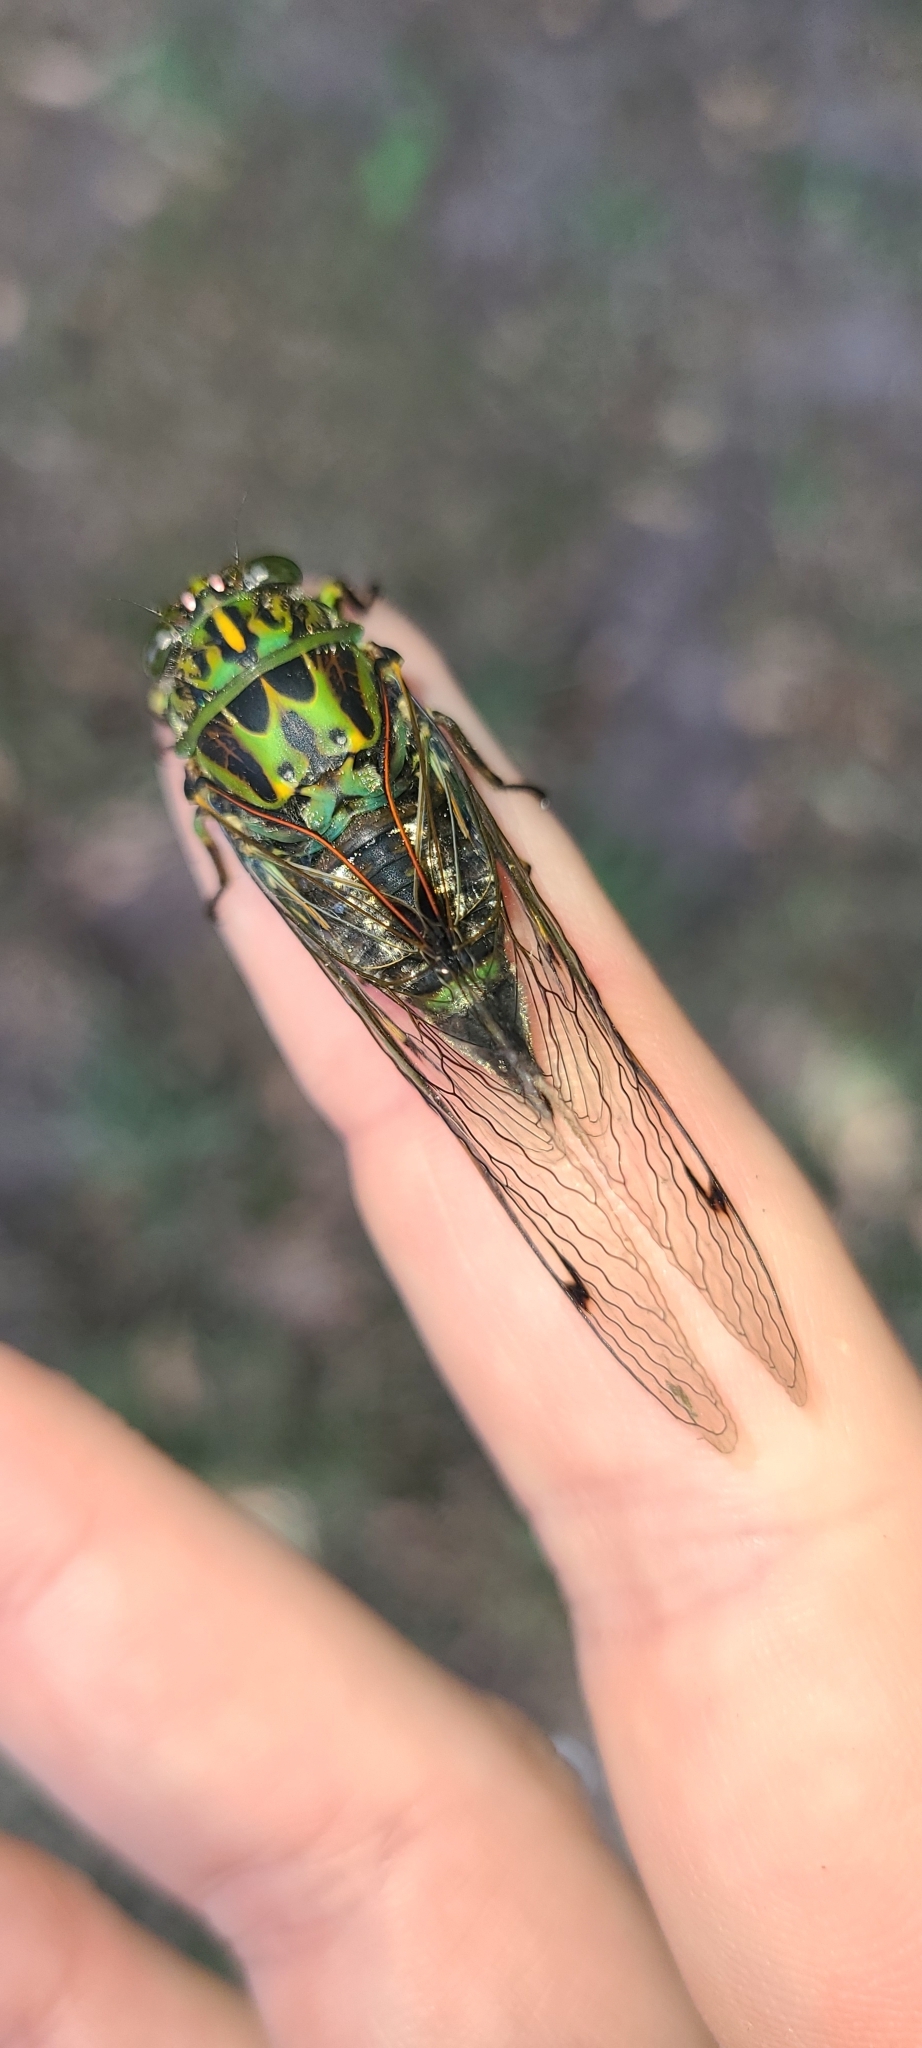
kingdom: Animalia
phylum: Arthropoda
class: Insecta
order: Hemiptera
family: Cicadidae
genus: Amphipsalta
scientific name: Amphipsalta zelandica
